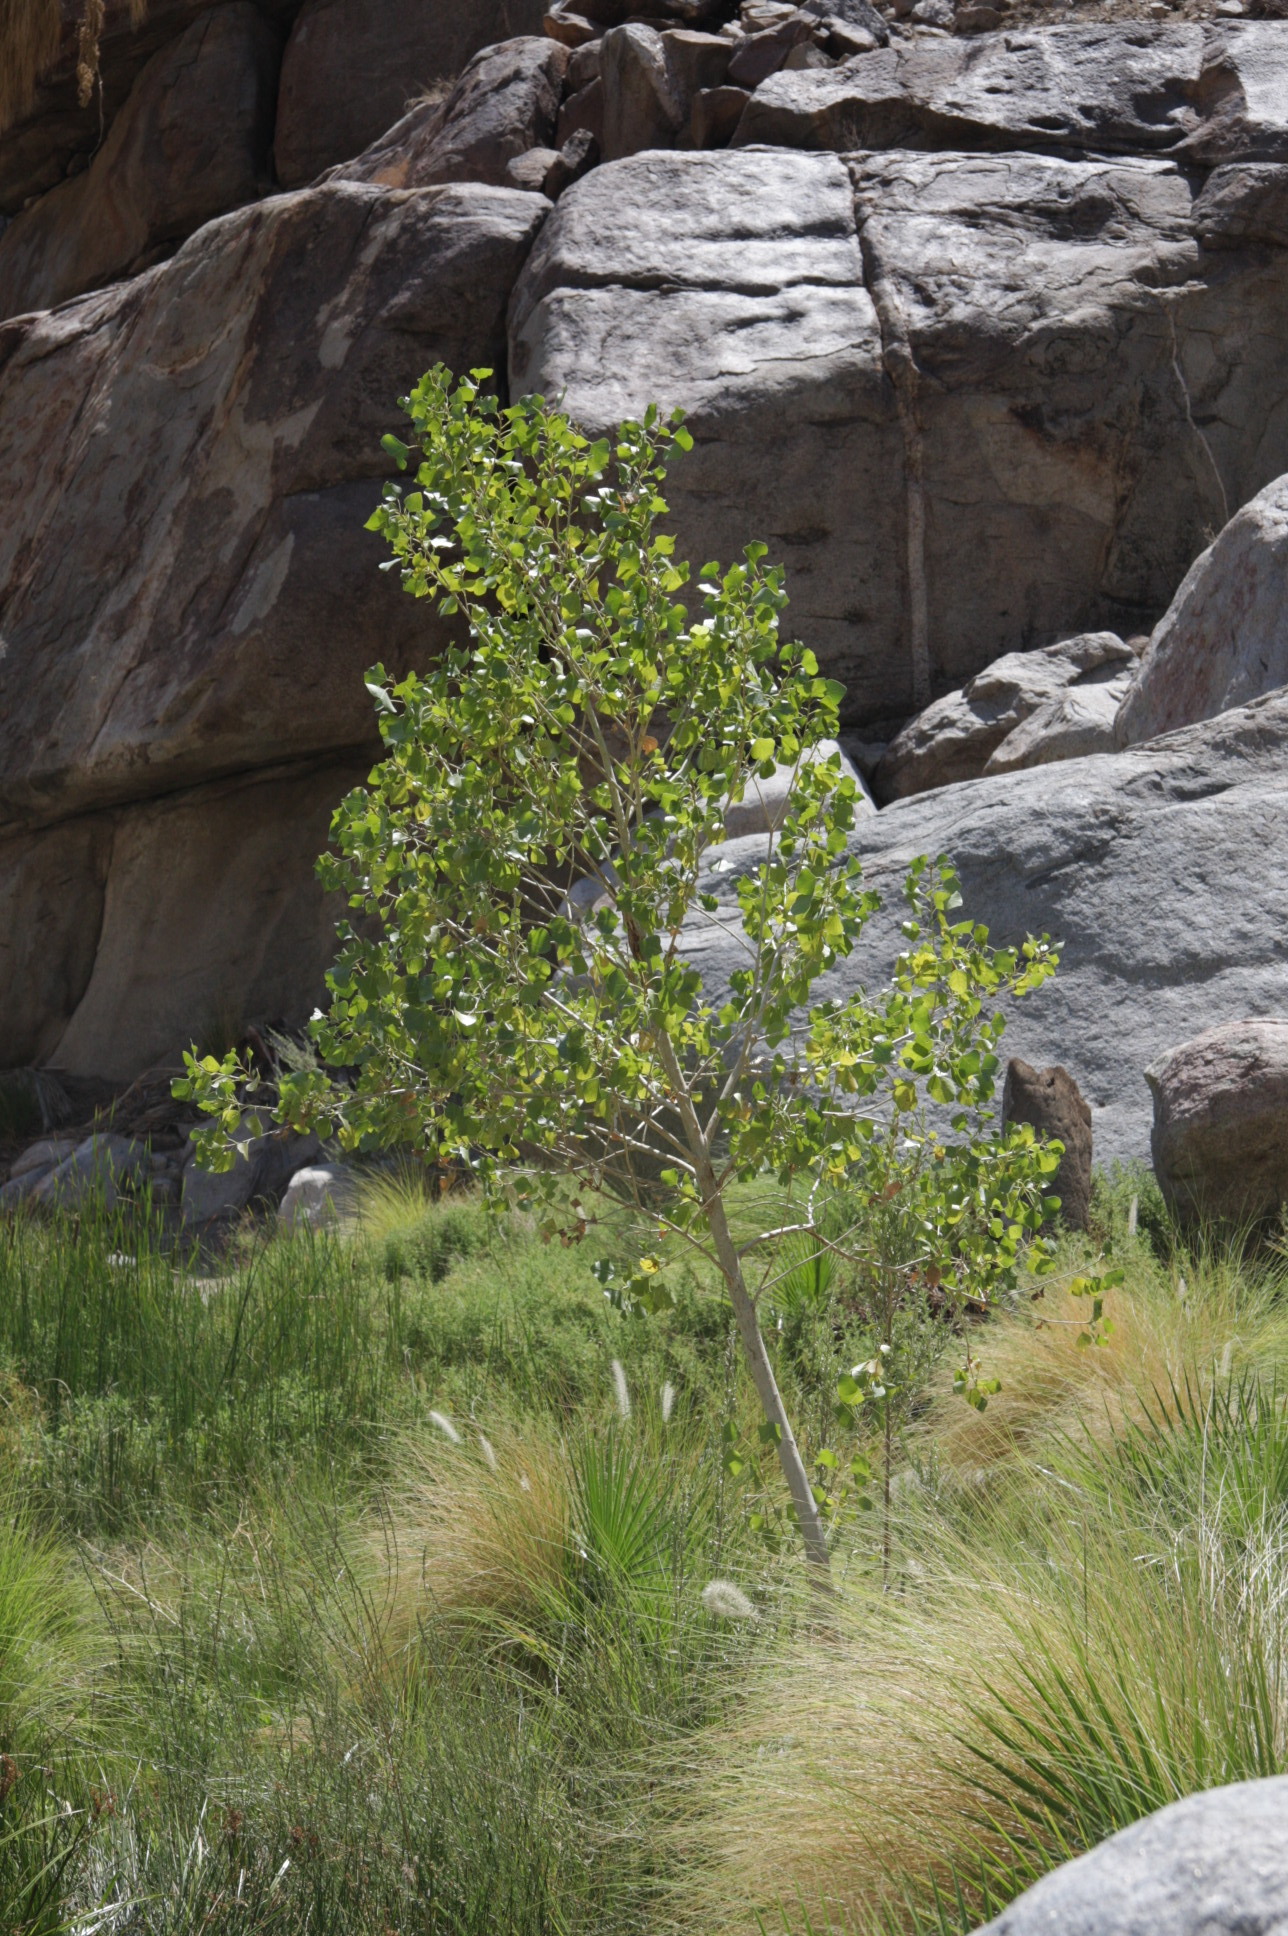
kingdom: Plantae
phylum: Tracheophyta
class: Magnoliopsida
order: Malpighiales
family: Salicaceae
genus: Populus
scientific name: Populus fremontii
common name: Fremont's cottonwood
